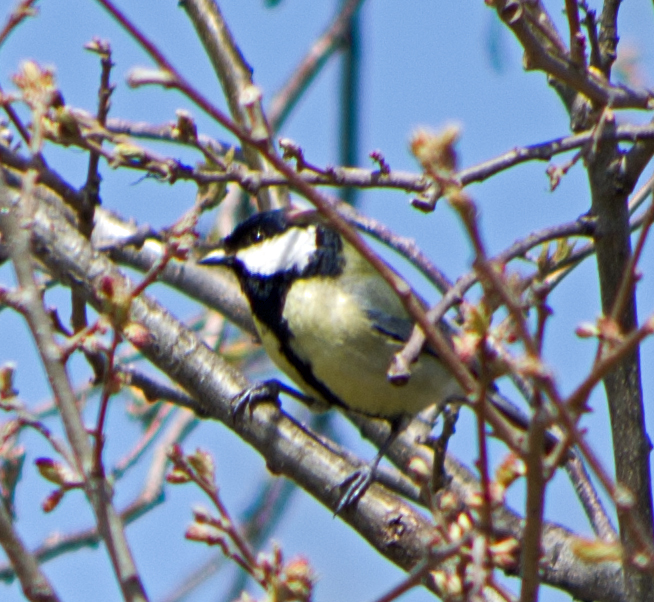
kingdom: Animalia
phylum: Chordata
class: Aves
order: Passeriformes
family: Paridae
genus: Parus
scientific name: Parus major
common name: Great tit
